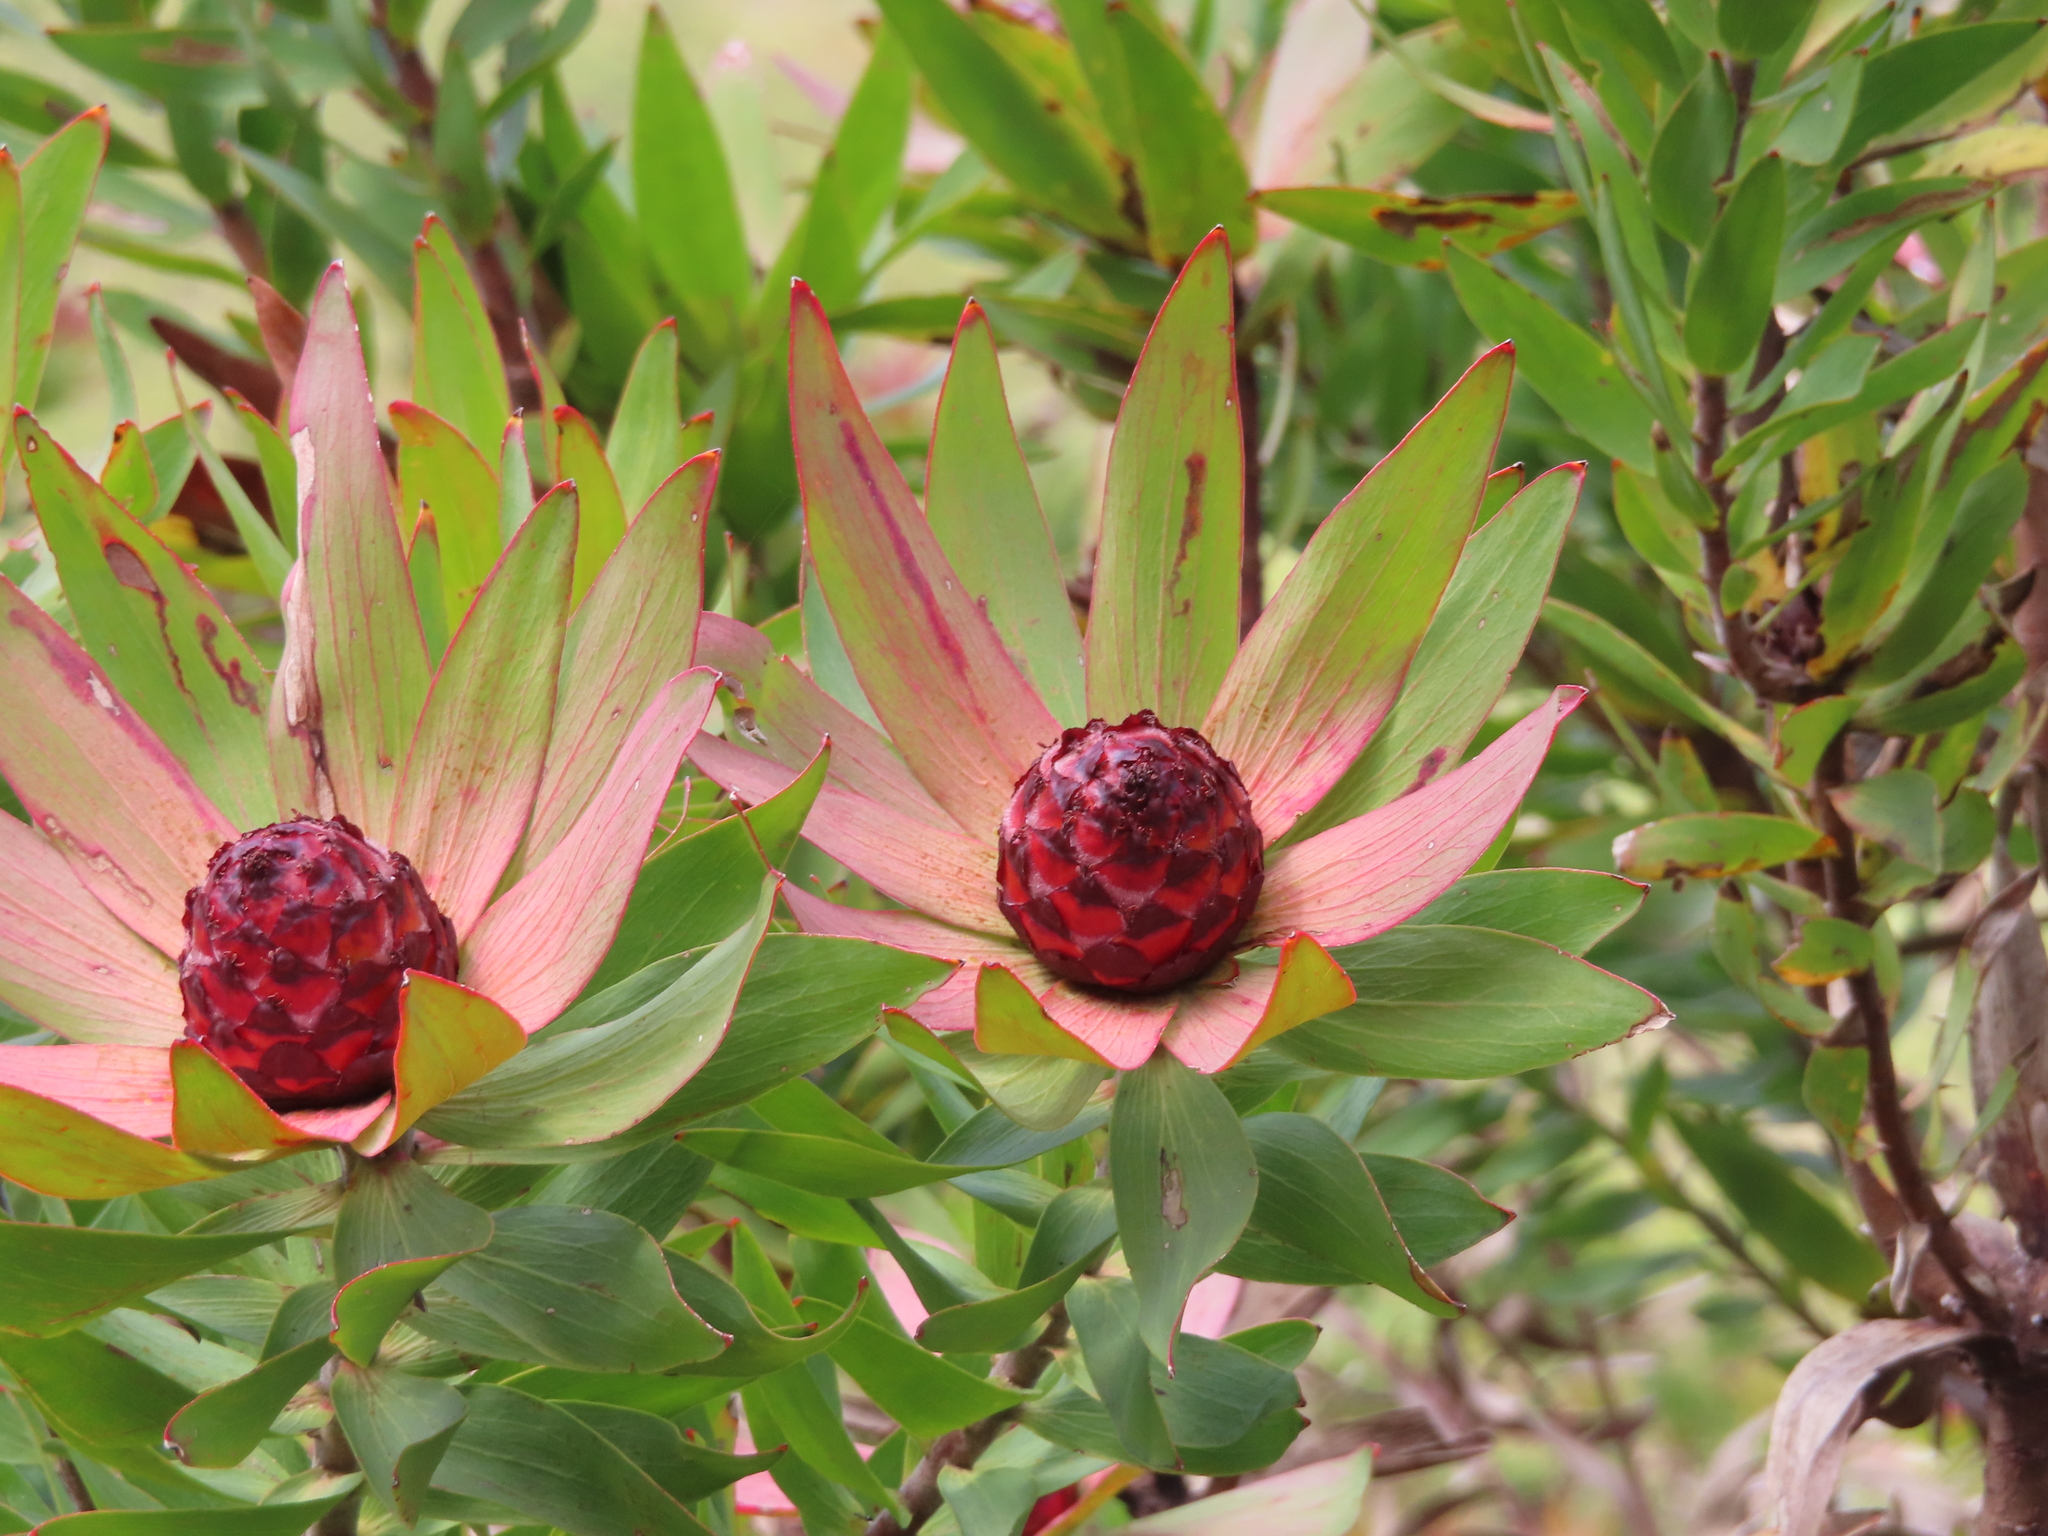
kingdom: Plantae
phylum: Tracheophyta
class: Magnoliopsida
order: Proteales
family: Proteaceae
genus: Leucadendron
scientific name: Leucadendron sessile
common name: Western sunbush
